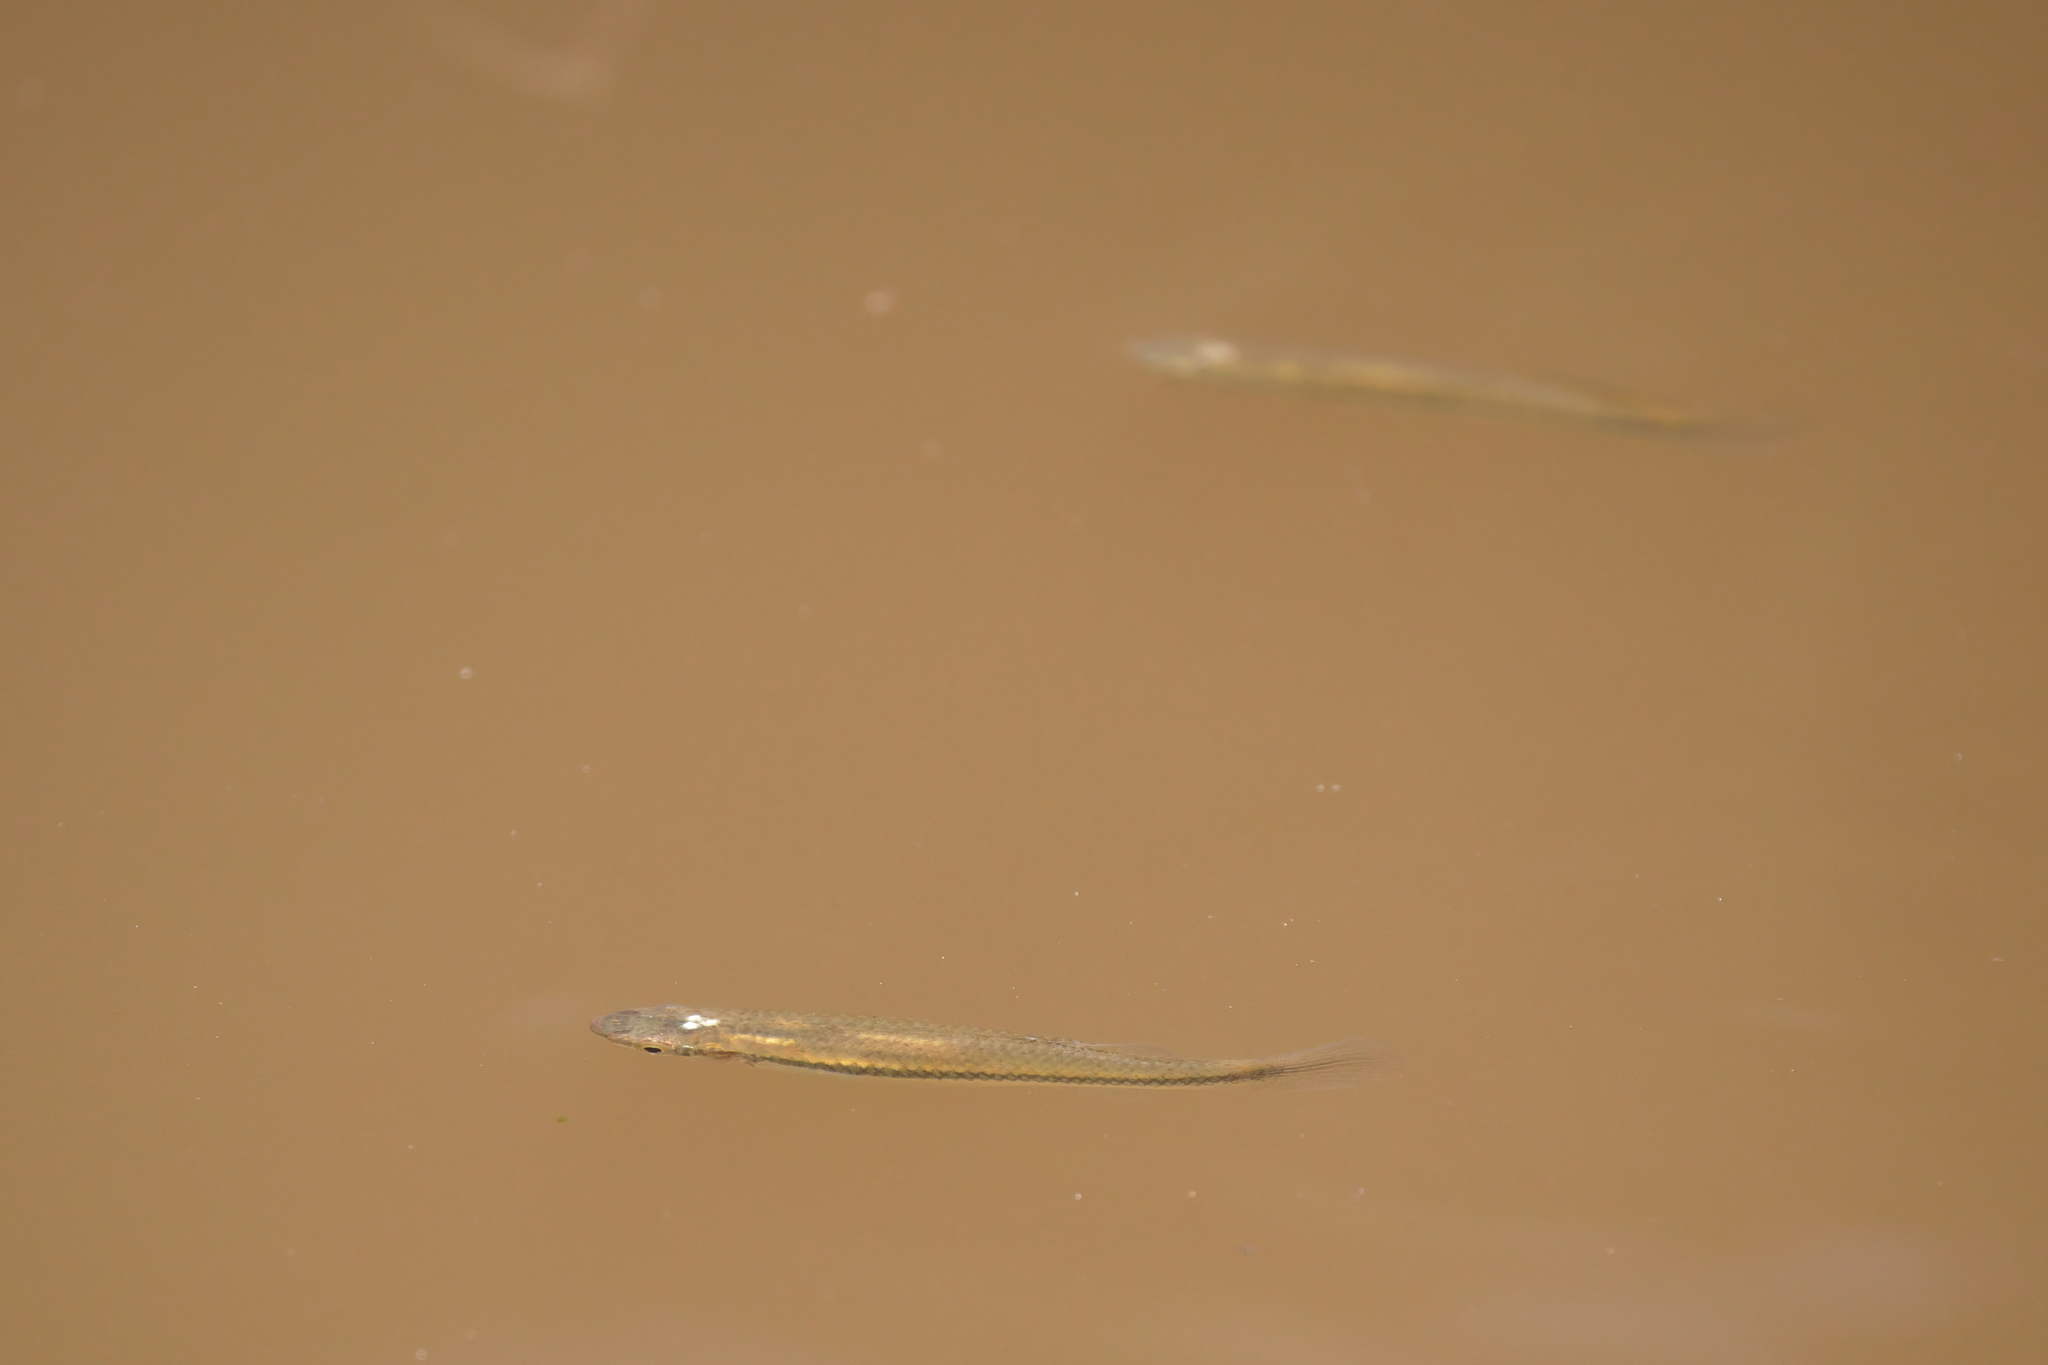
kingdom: Animalia
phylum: Chordata
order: Cyprinodontiformes
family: Fundulidae
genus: Fundulus
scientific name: Fundulus notatus
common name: Blackstripe topminnow
